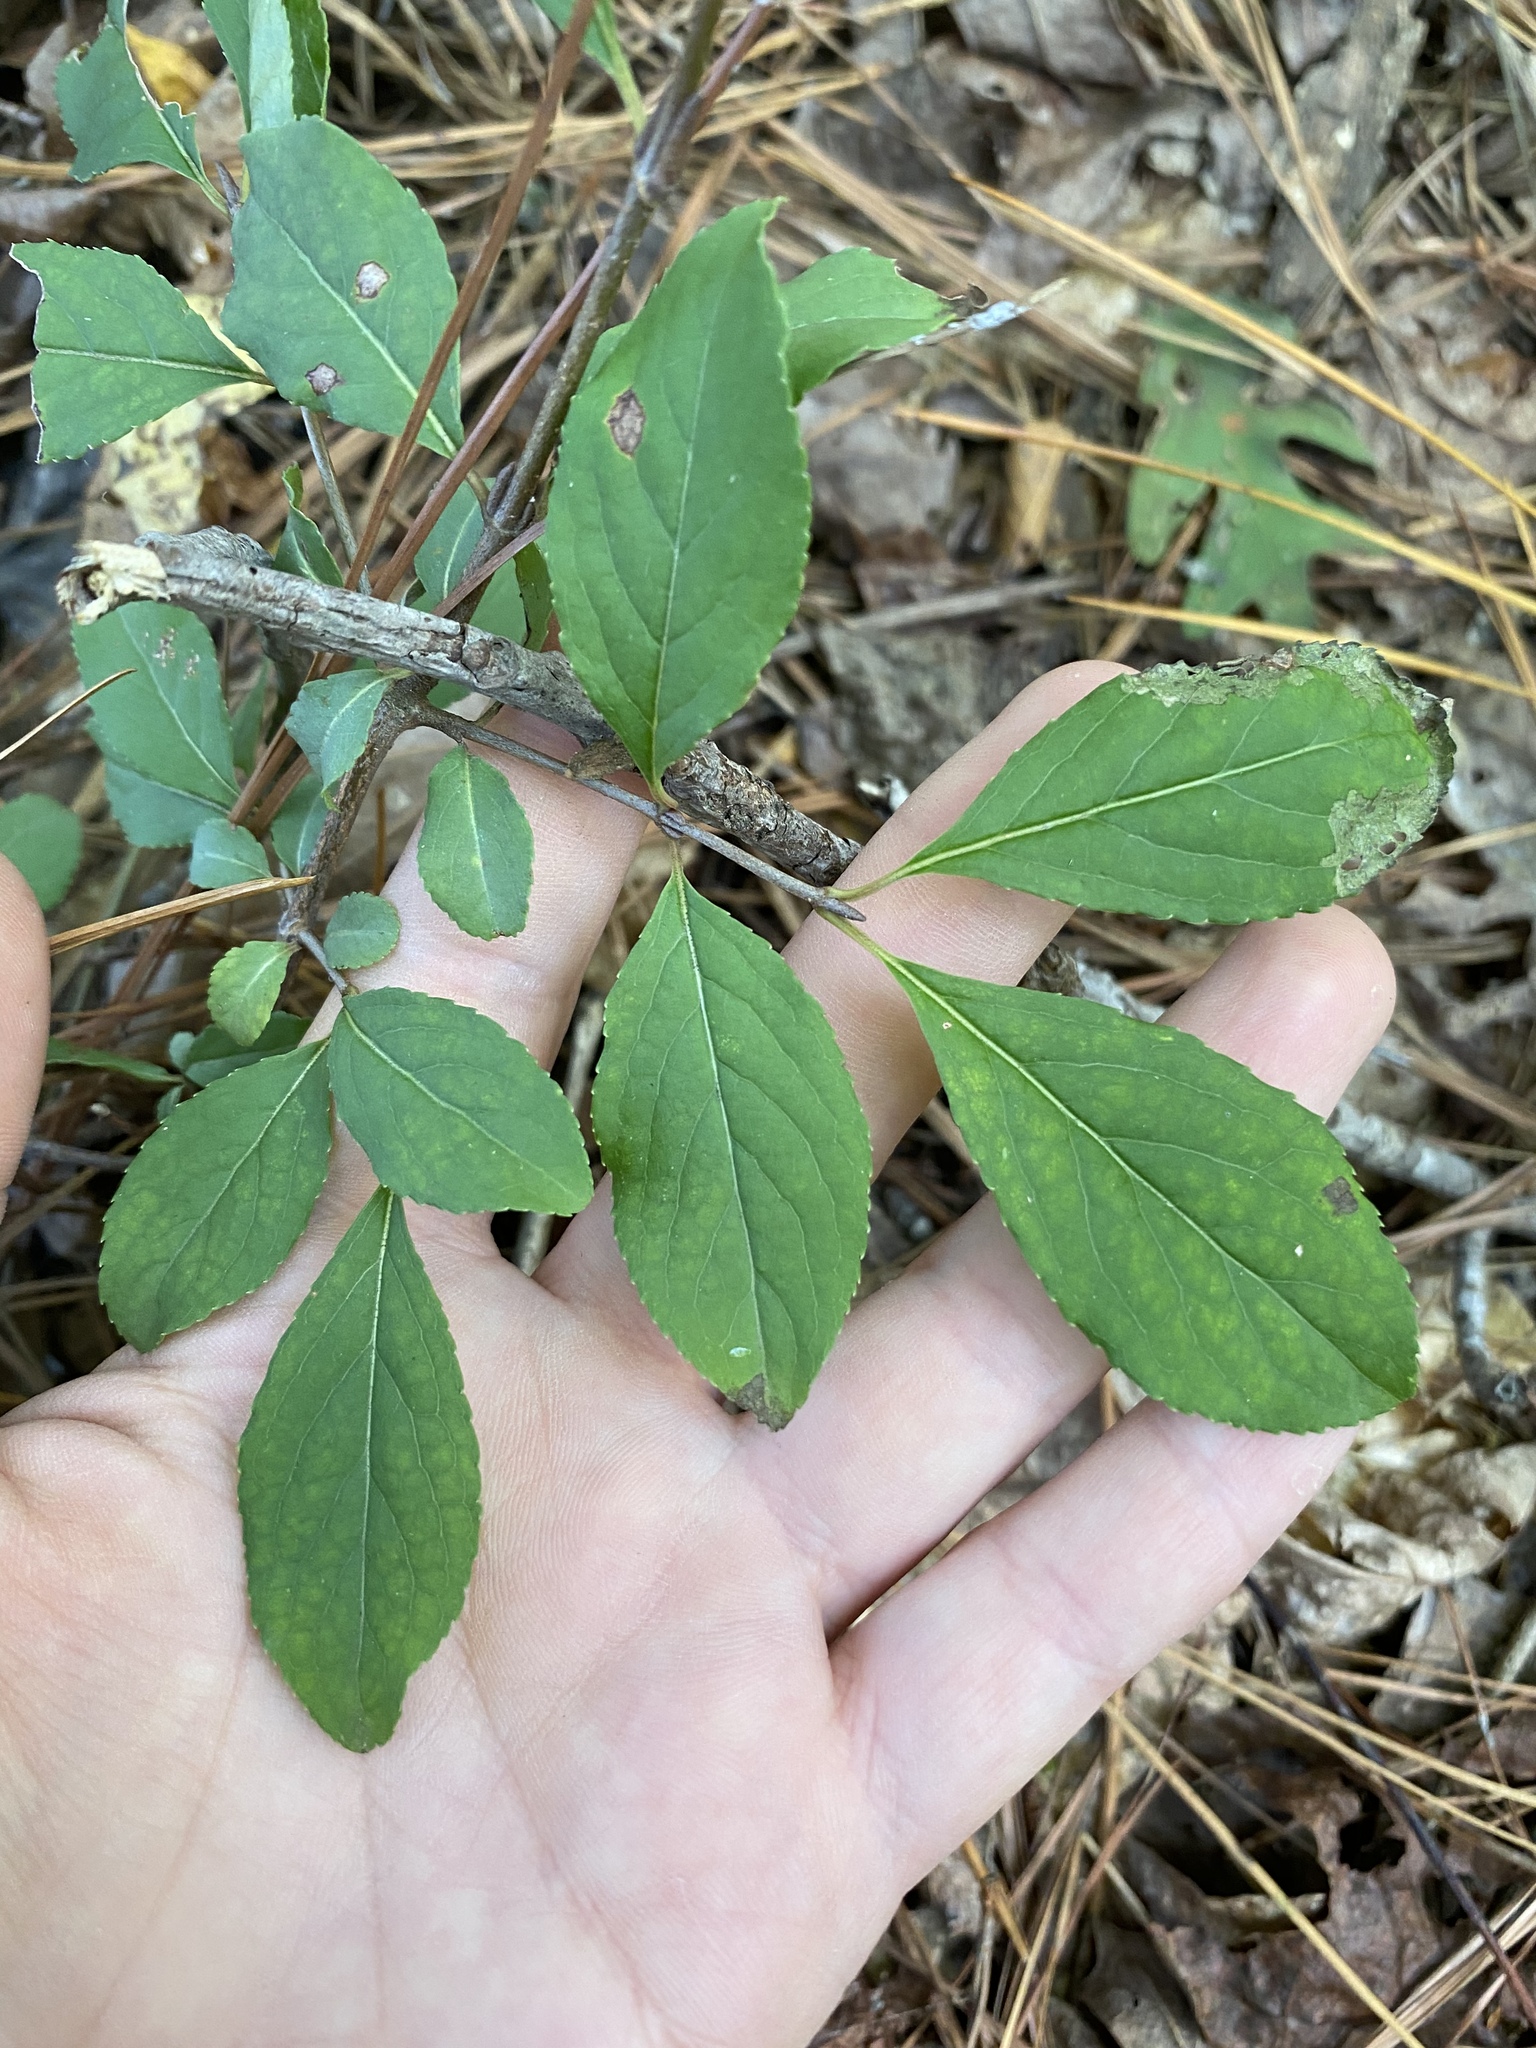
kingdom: Plantae
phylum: Tracheophyta
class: Magnoliopsida
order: Dipsacales
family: Viburnaceae
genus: Viburnum
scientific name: Viburnum prunifolium
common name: Black haw
